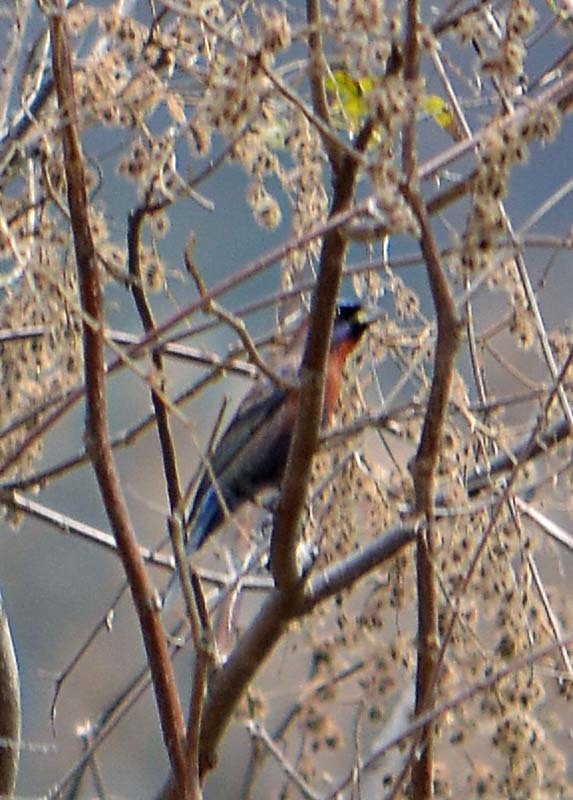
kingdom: Animalia
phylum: Chordata
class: Aves
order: Passeriformes
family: Cardinalidae
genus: Passerina
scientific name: Passerina versicolor
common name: Varied bunting
